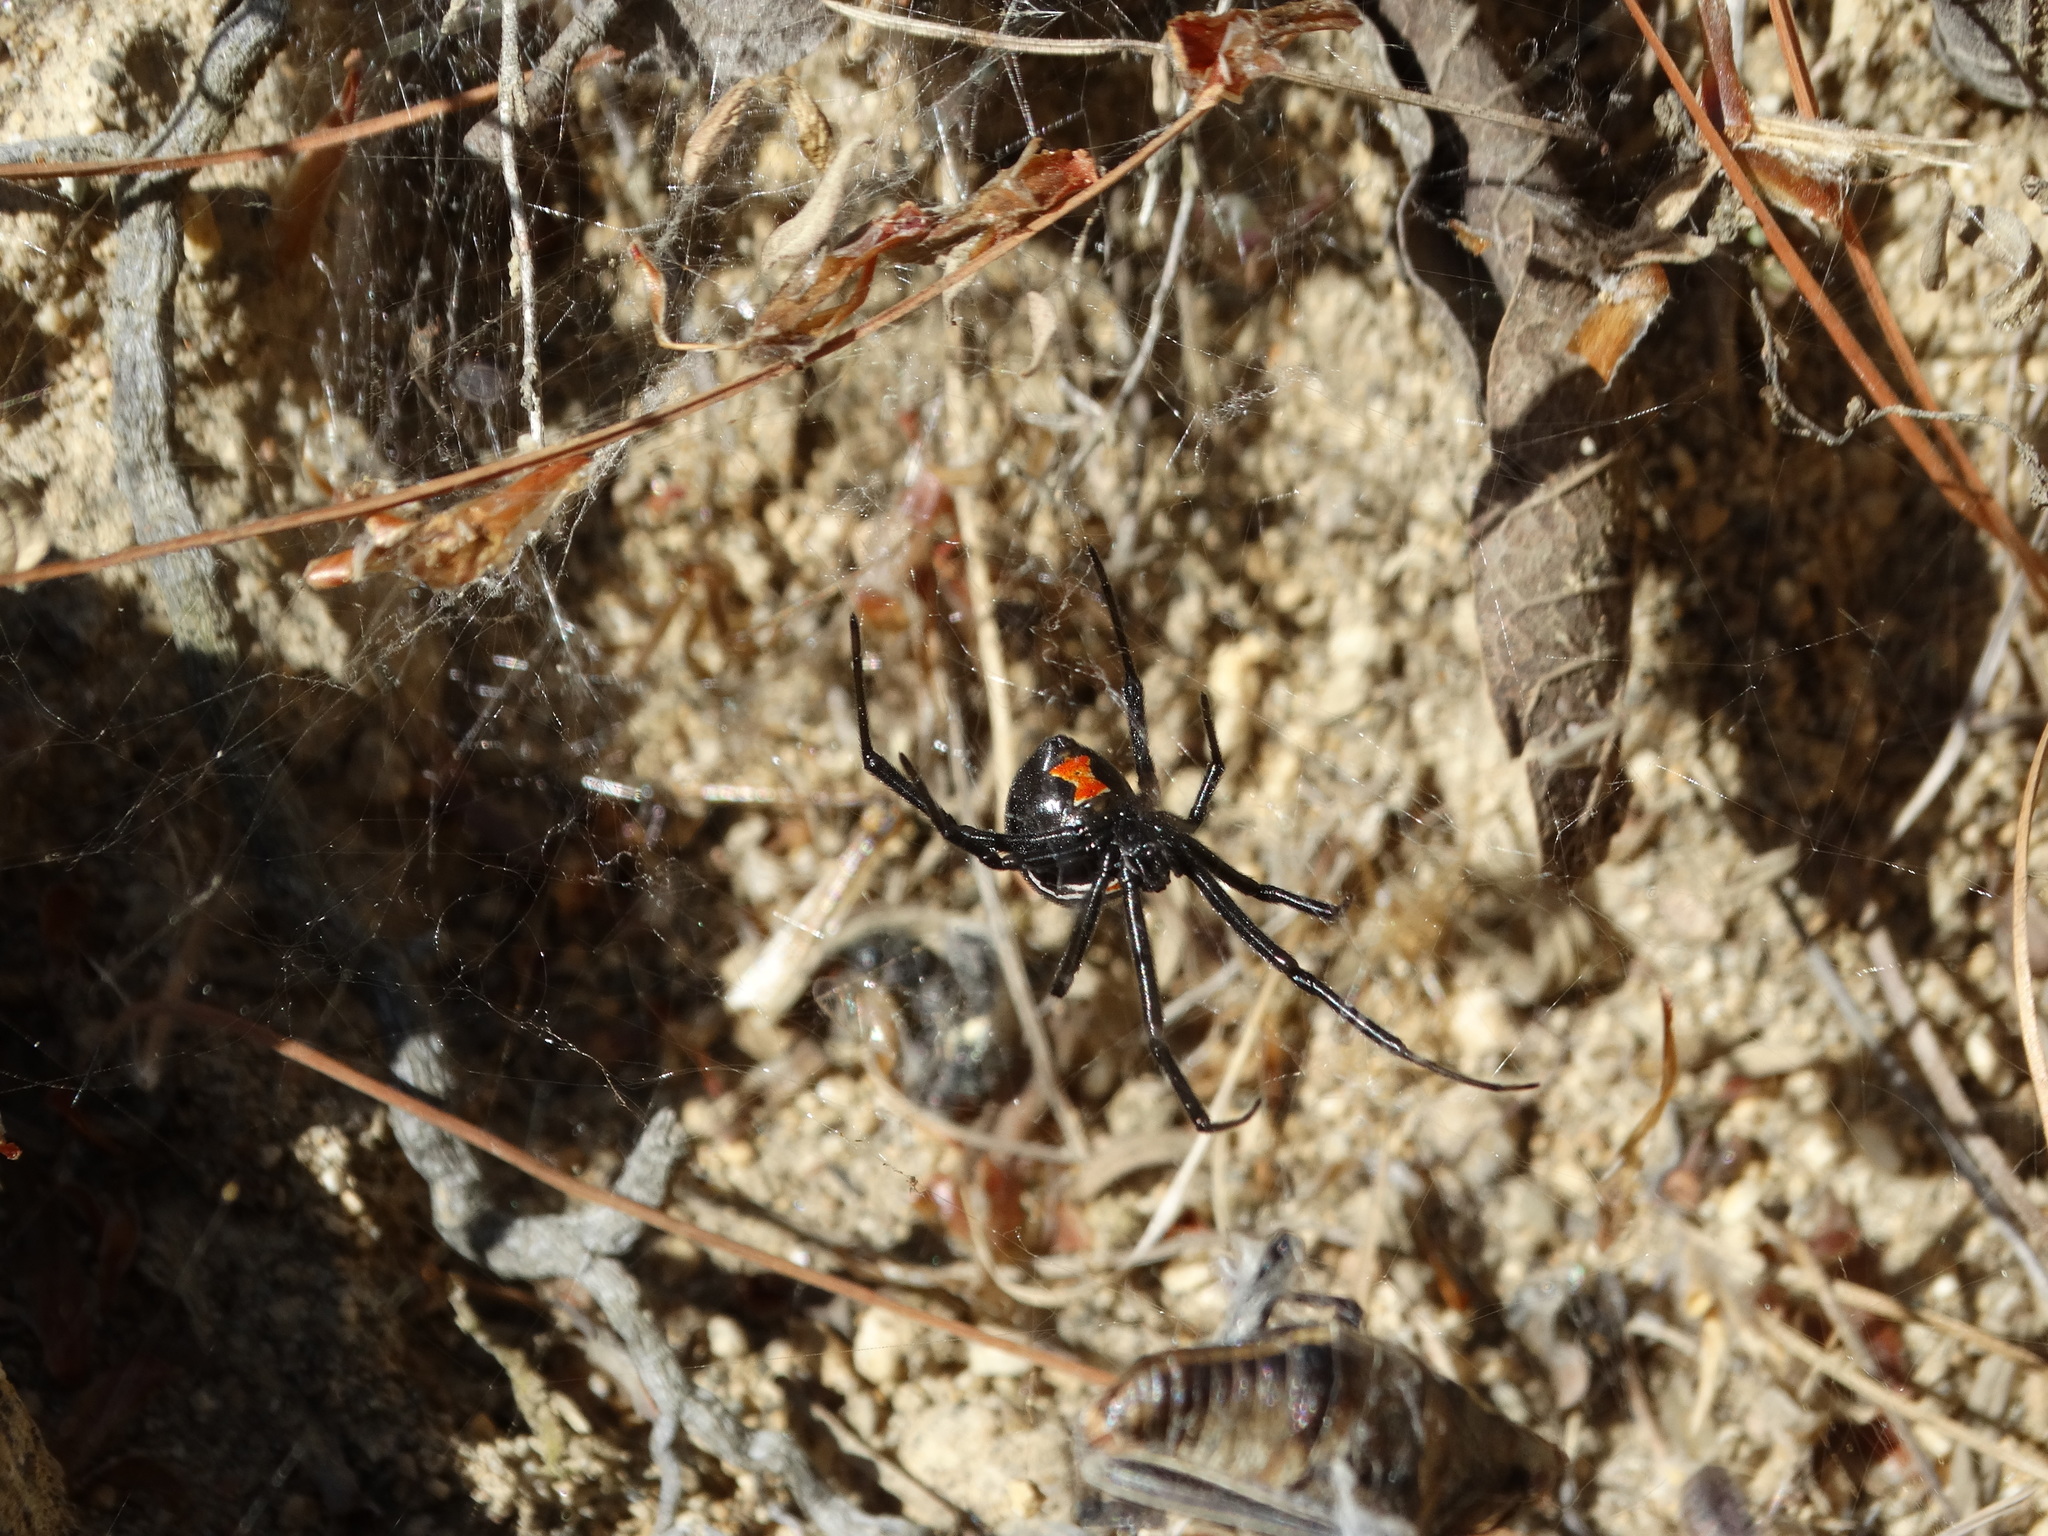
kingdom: Animalia
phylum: Arthropoda
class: Arachnida
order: Araneae
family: Theridiidae
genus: Latrodectus
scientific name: Latrodectus mactans
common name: Cobweb spiders
